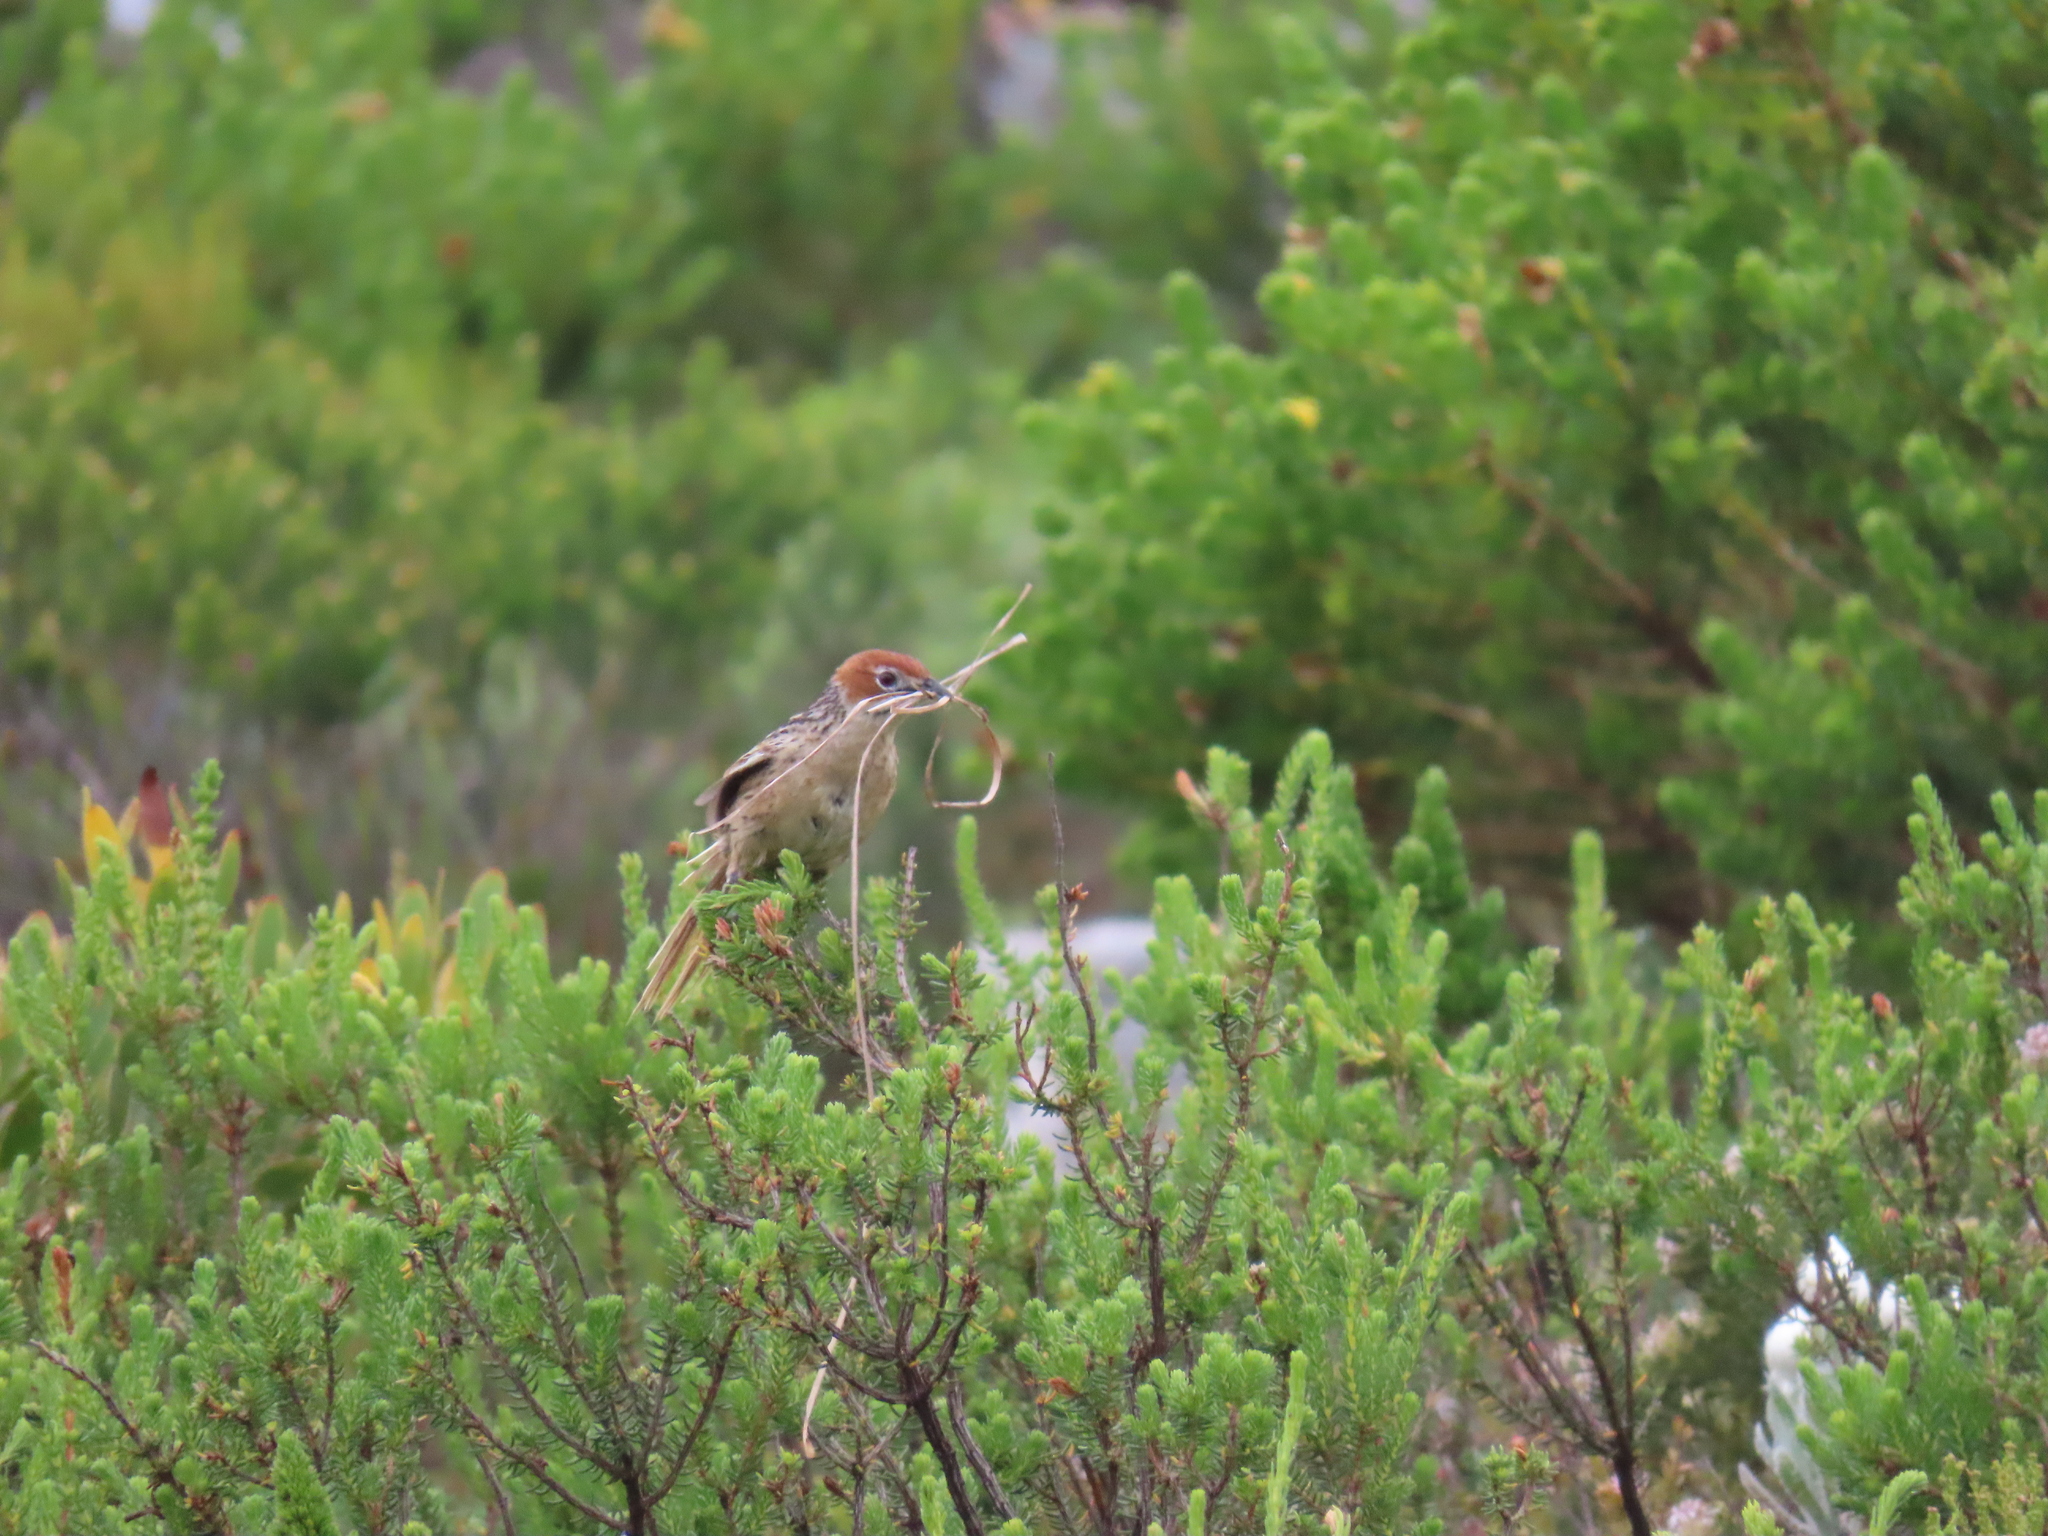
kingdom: Animalia
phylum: Chordata
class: Aves
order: Passeriformes
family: Macrosphenidae
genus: Sphenoeacus
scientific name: Sphenoeacus afer
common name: Cape grassbird
